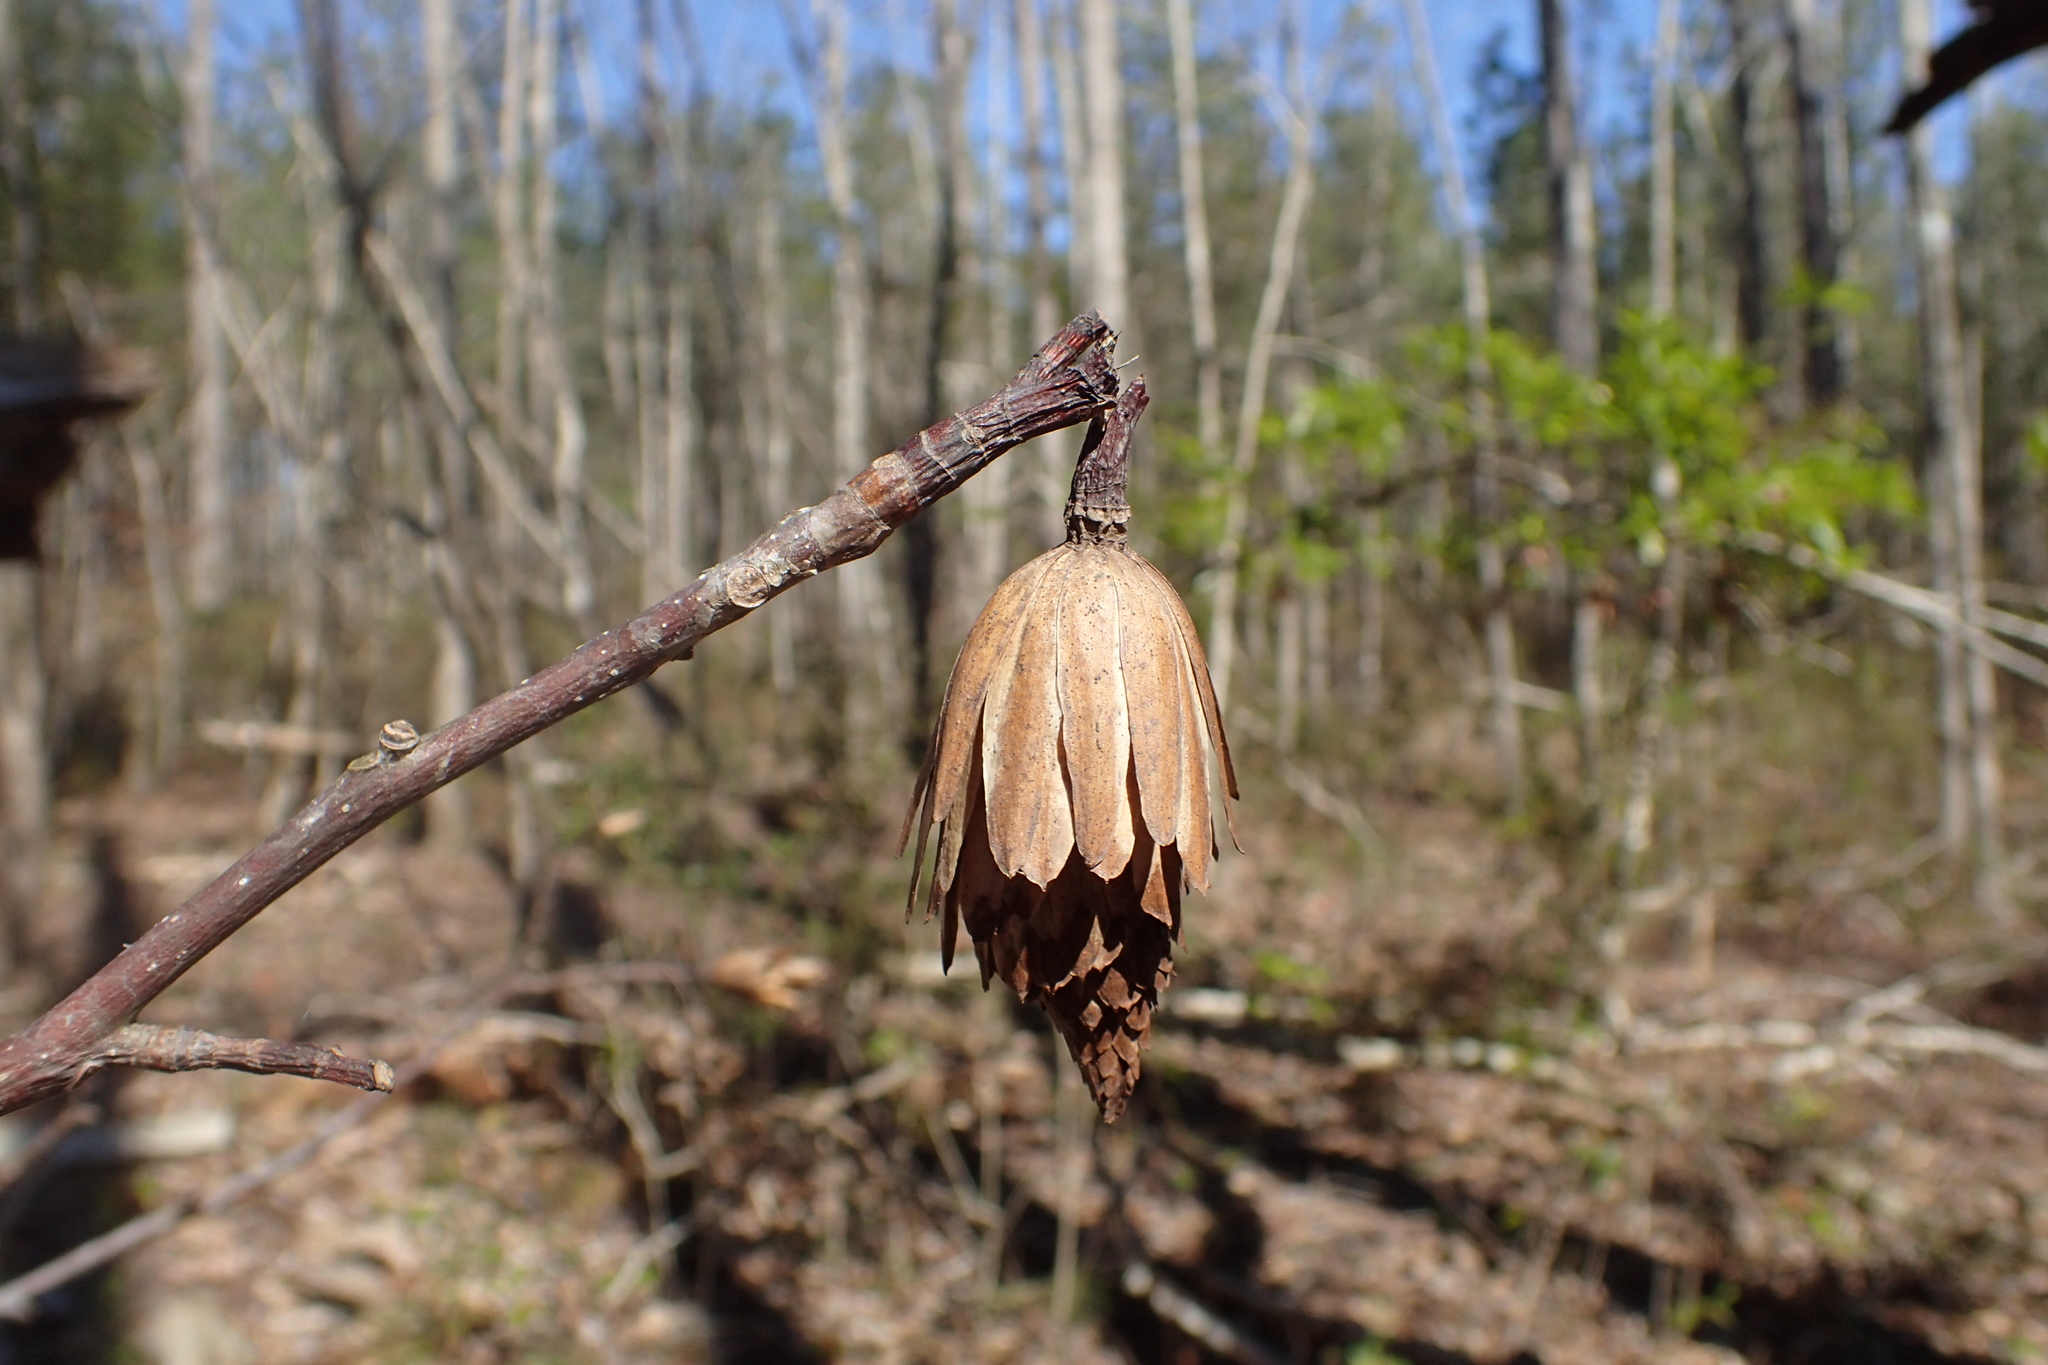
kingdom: Plantae
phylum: Tracheophyta
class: Magnoliopsida
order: Magnoliales
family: Magnoliaceae
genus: Liriodendron
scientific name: Liriodendron tulipifera
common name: Tulip tree
